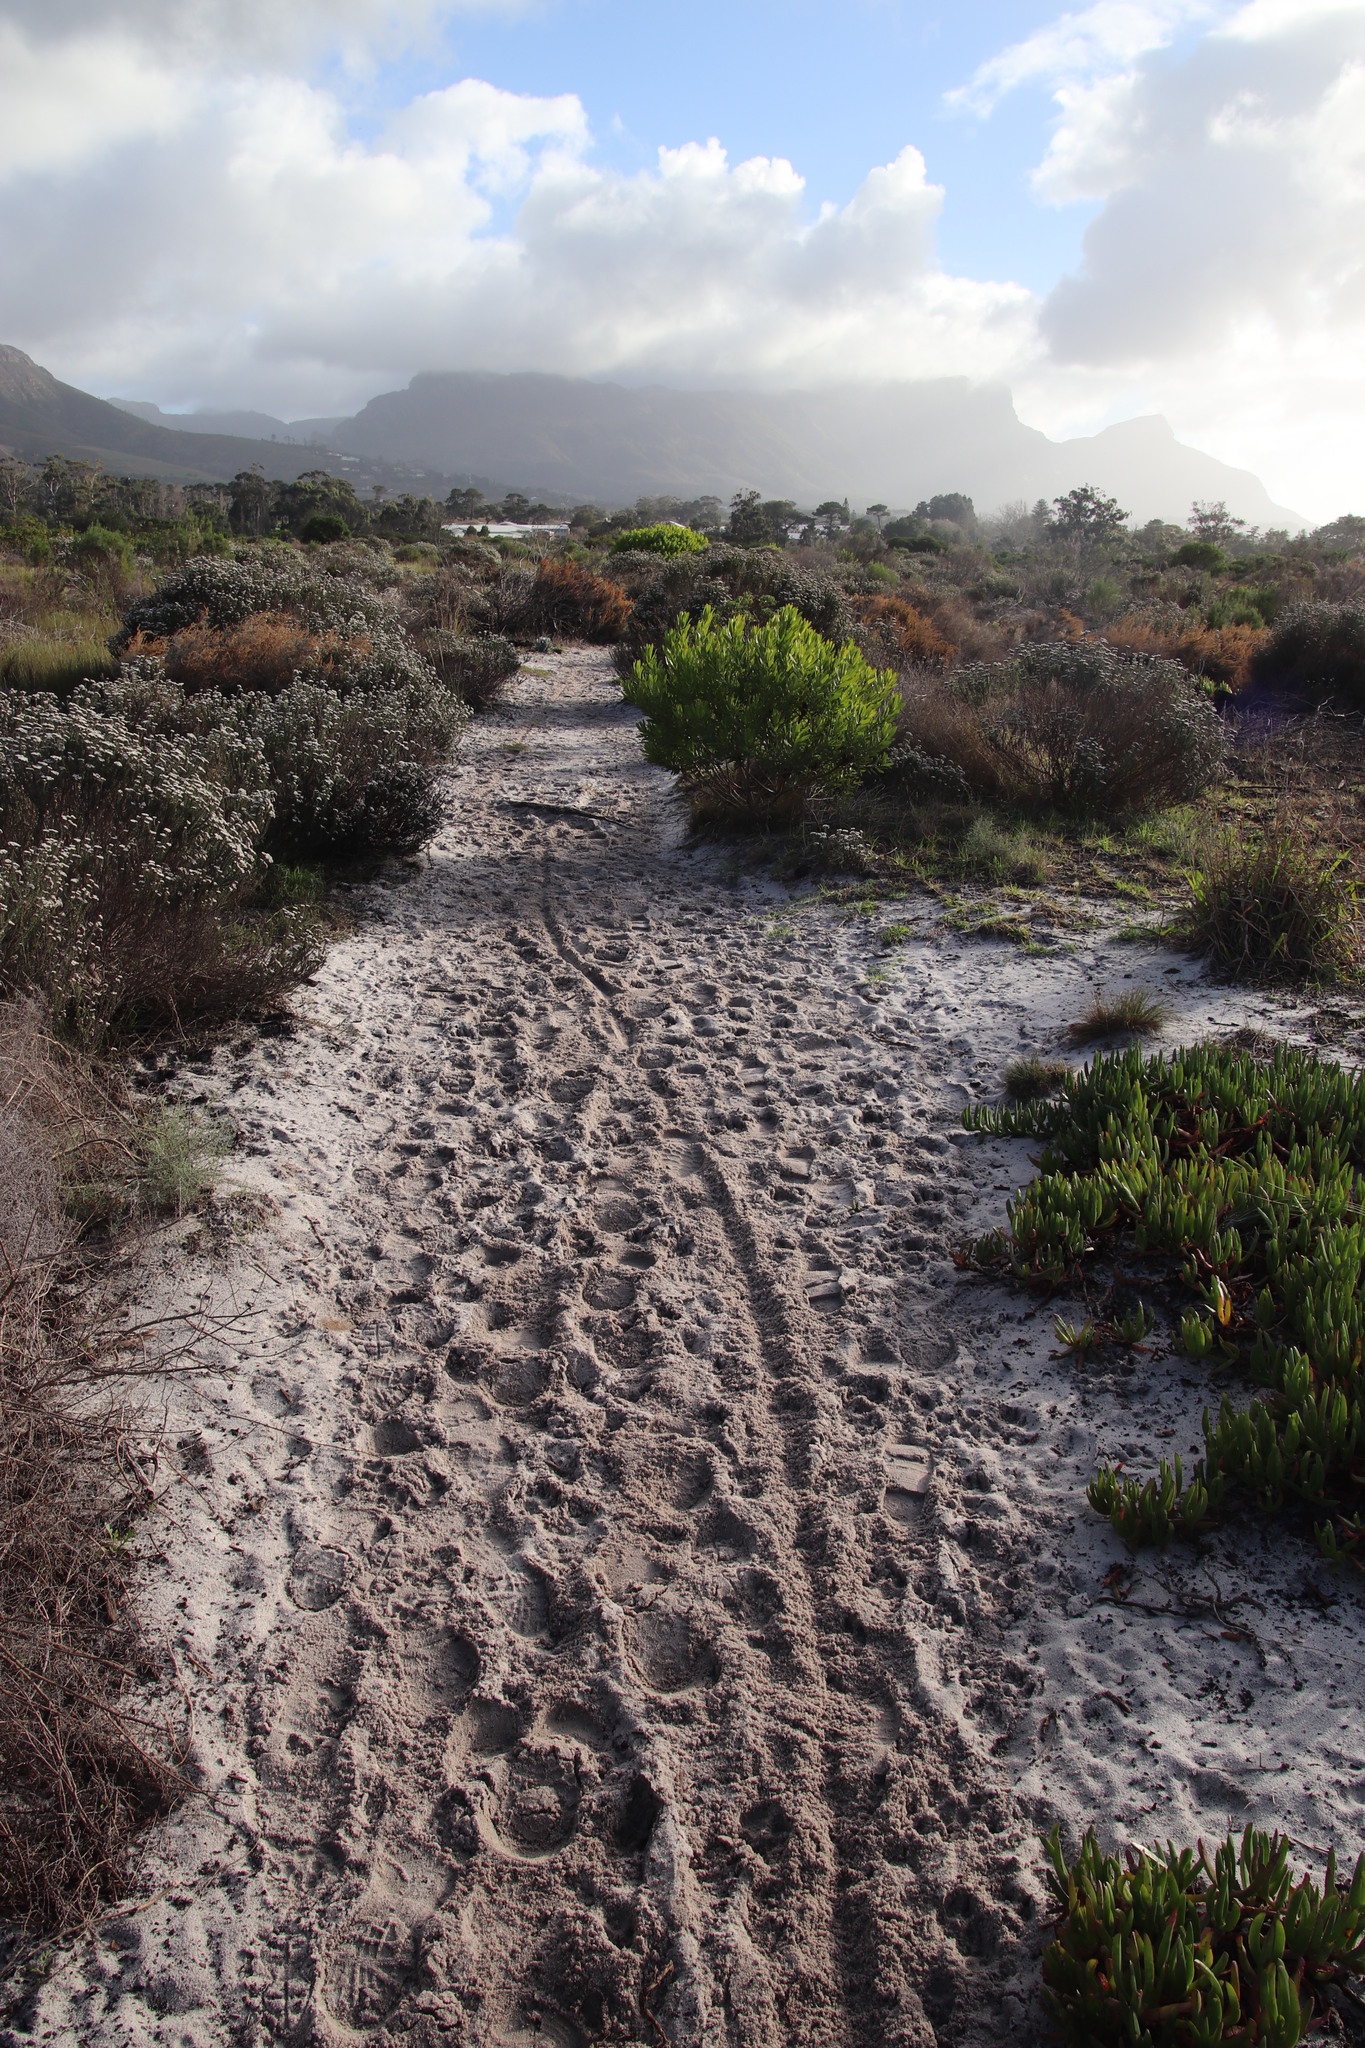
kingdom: Plantae
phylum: Tracheophyta
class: Magnoliopsida
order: Proteales
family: Proteaceae
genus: Leucadendron
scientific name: Leucadendron laureolum
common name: Golden sunshinebush
